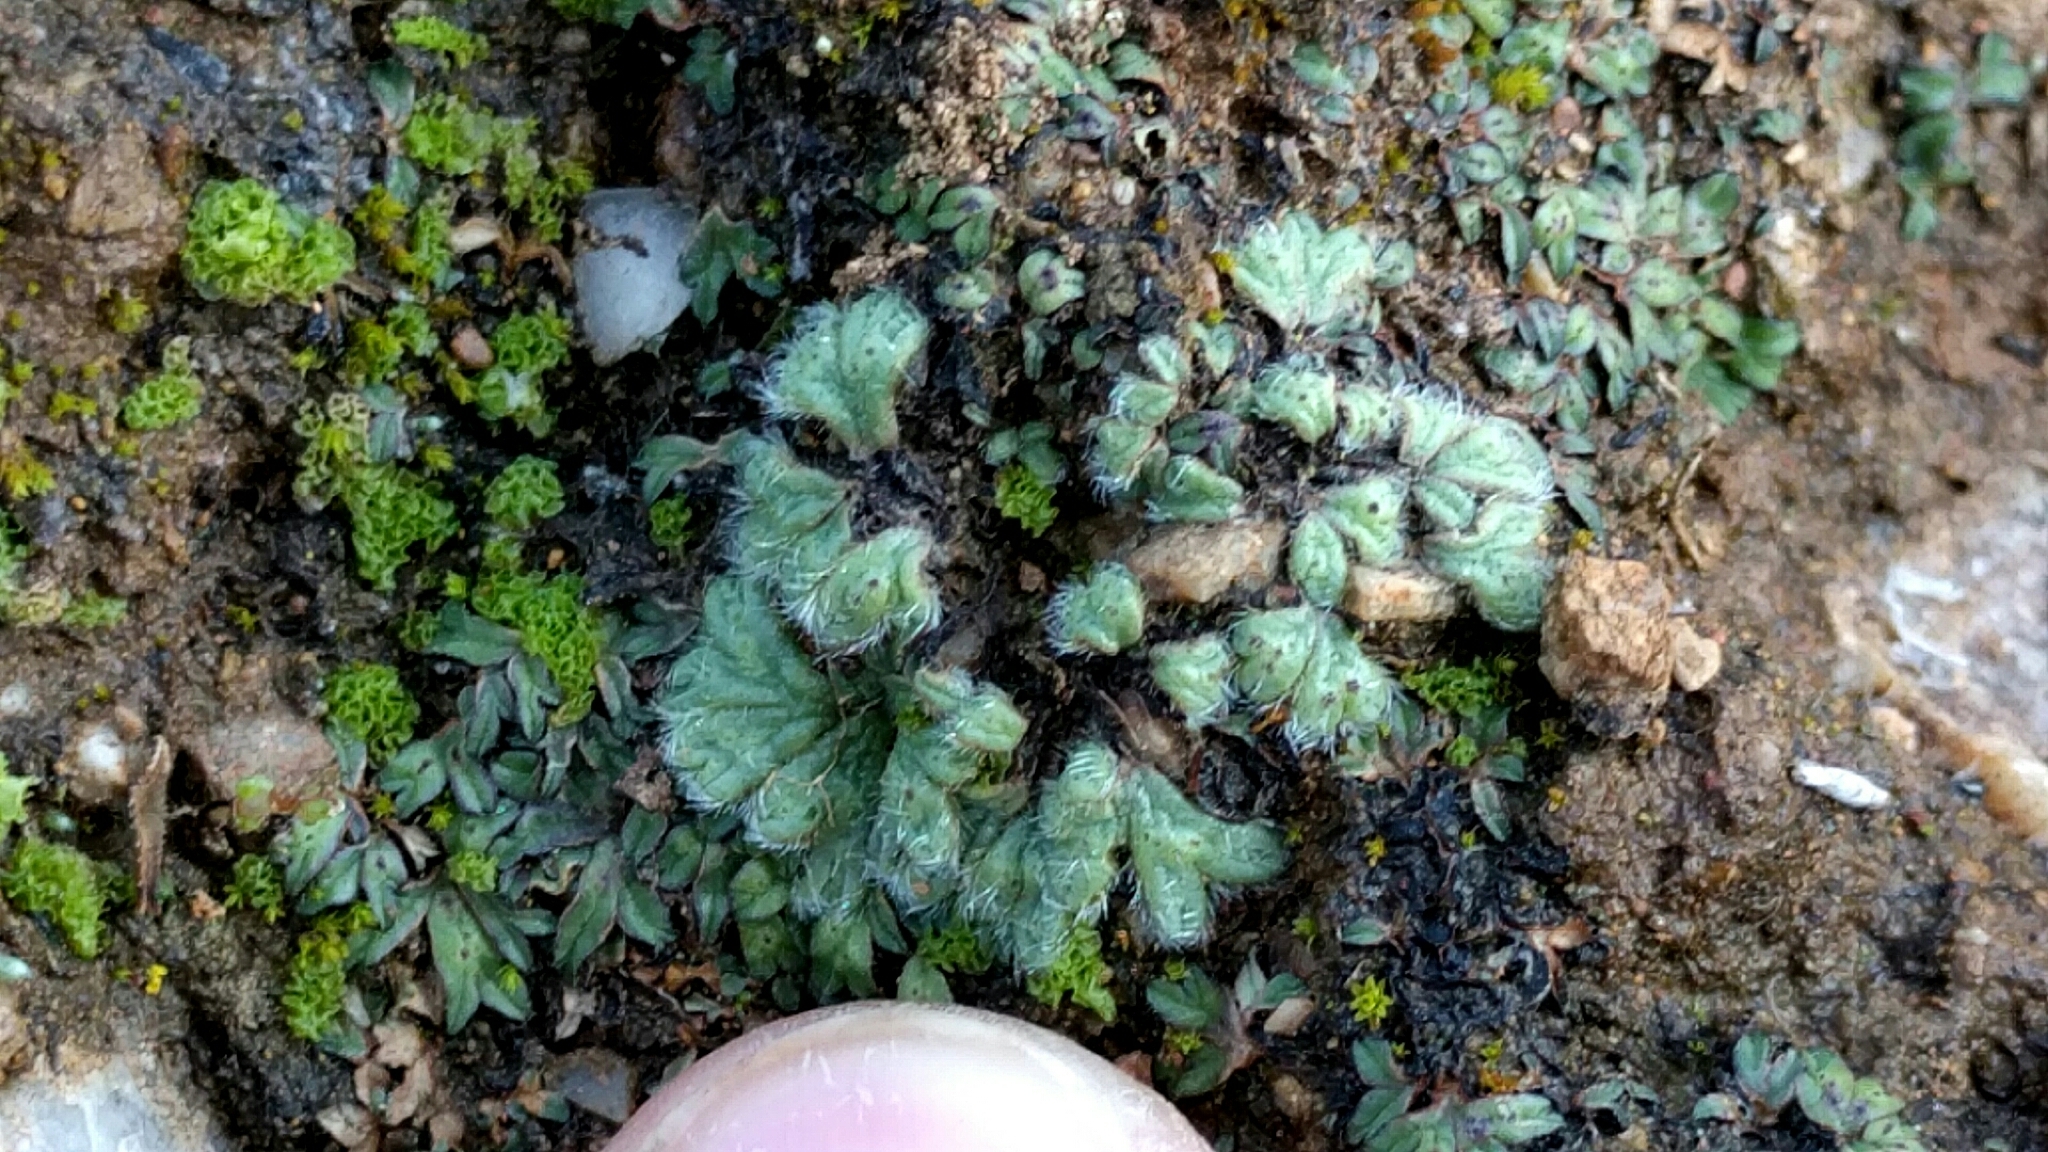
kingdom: Plantae
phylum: Marchantiophyta
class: Marchantiopsida
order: Marchantiales
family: Ricciaceae
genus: Riccia
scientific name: Riccia trichocarpa
